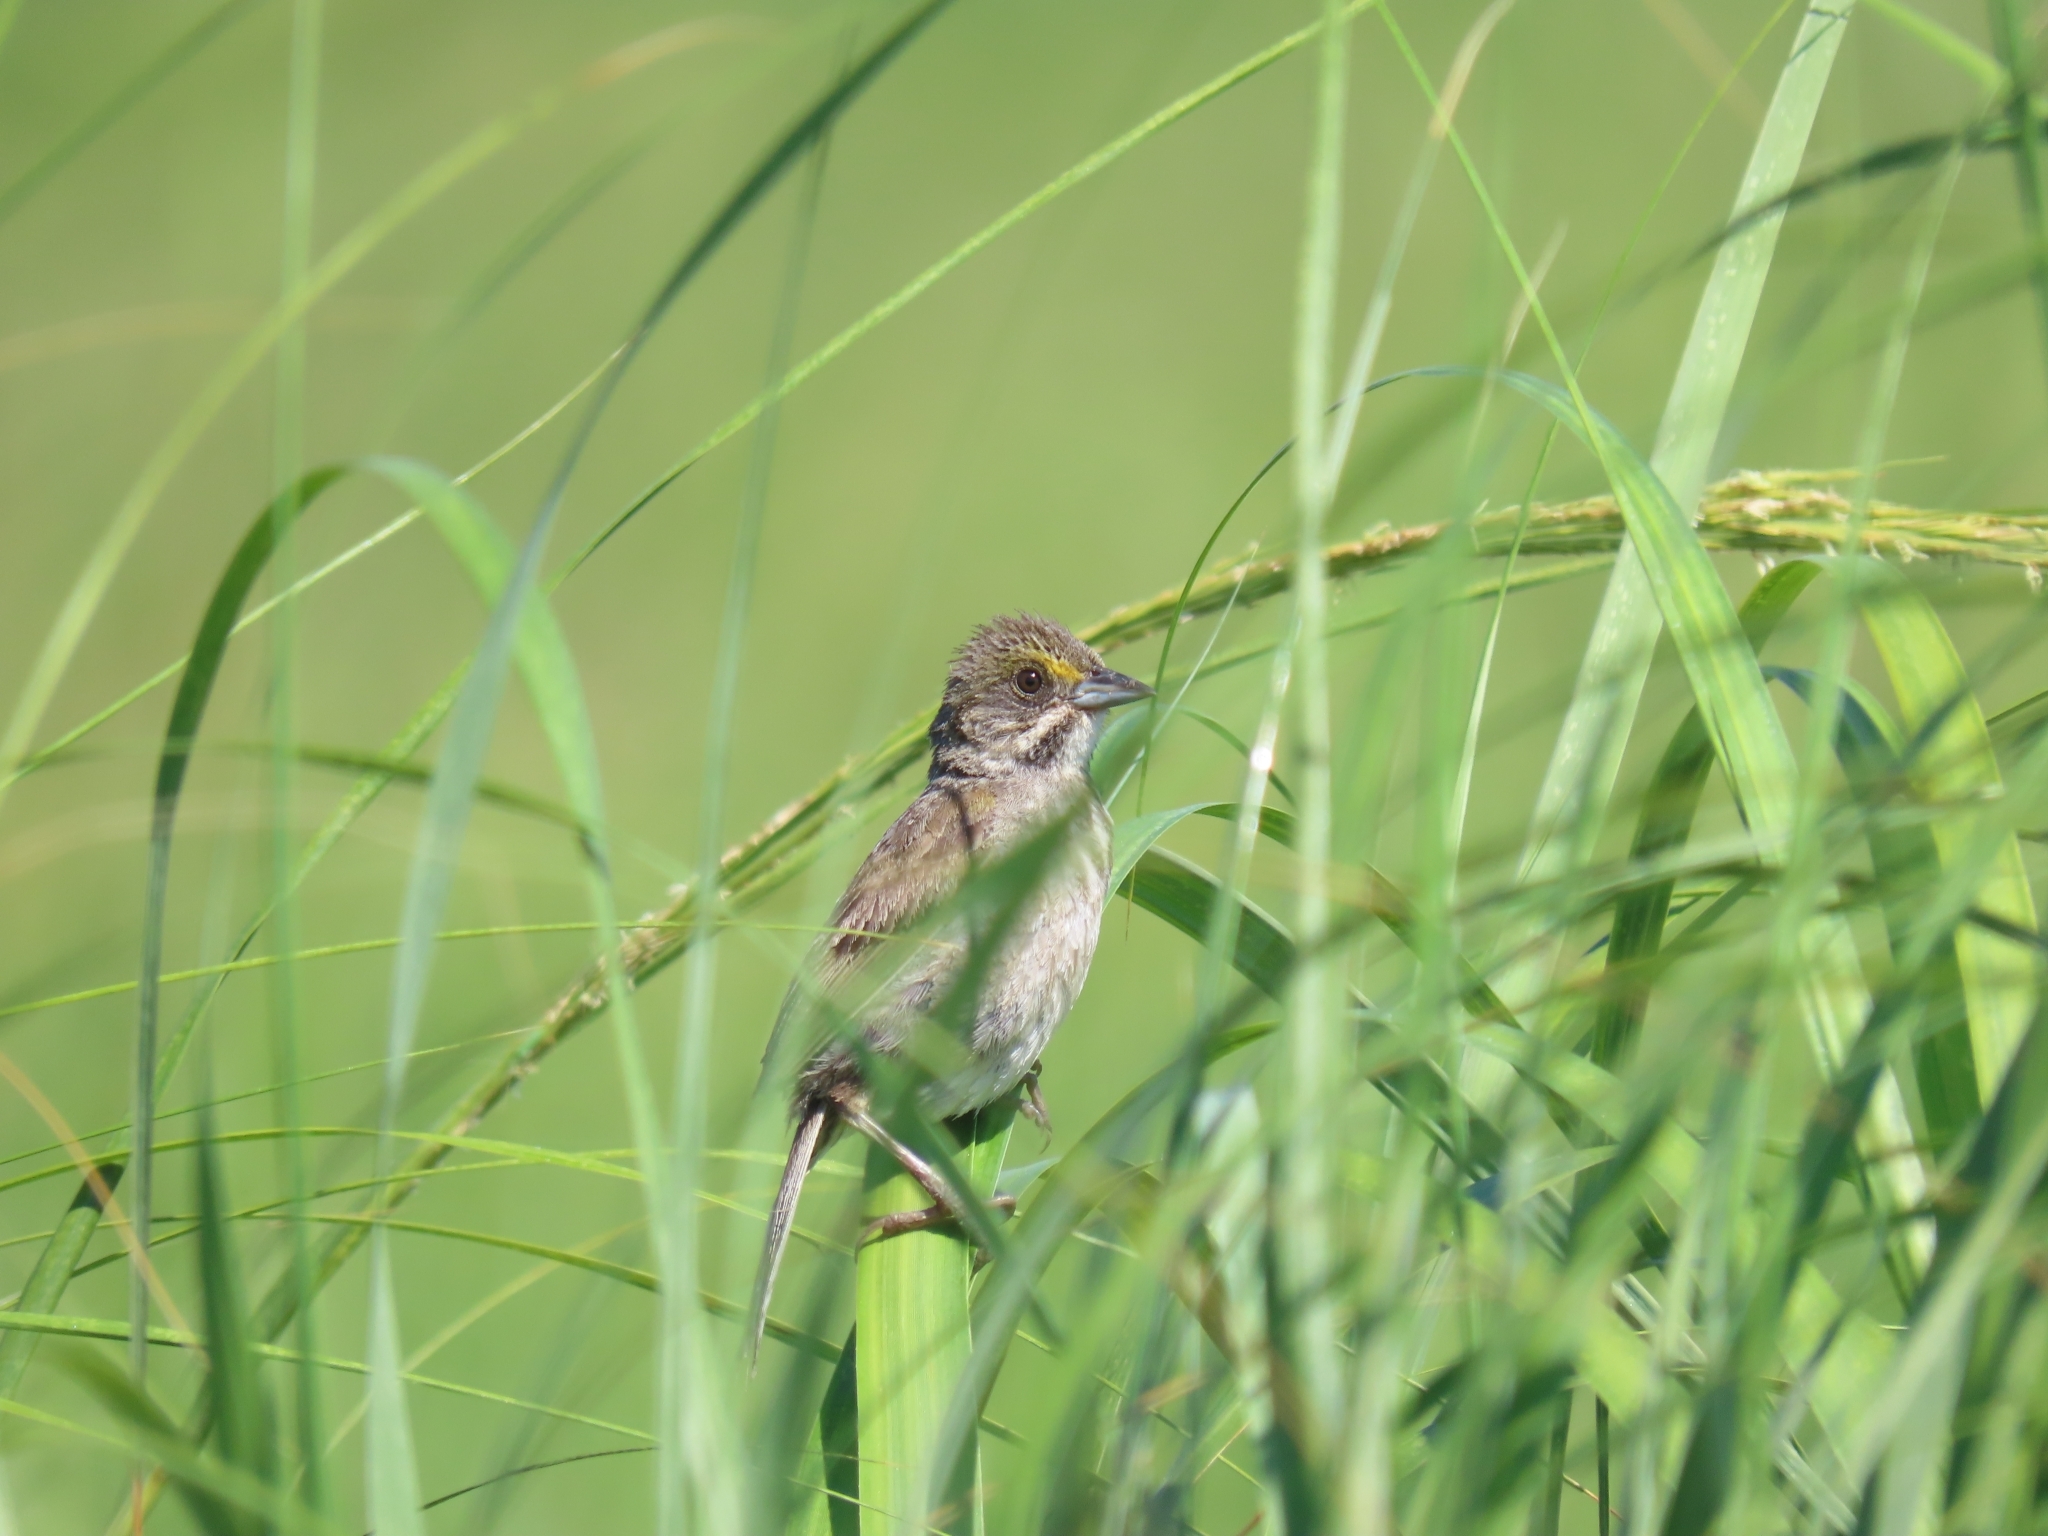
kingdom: Animalia
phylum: Chordata
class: Aves
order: Passeriformes
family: Passerellidae
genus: Ammospiza
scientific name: Ammospiza maritima
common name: Seaside sparrow
